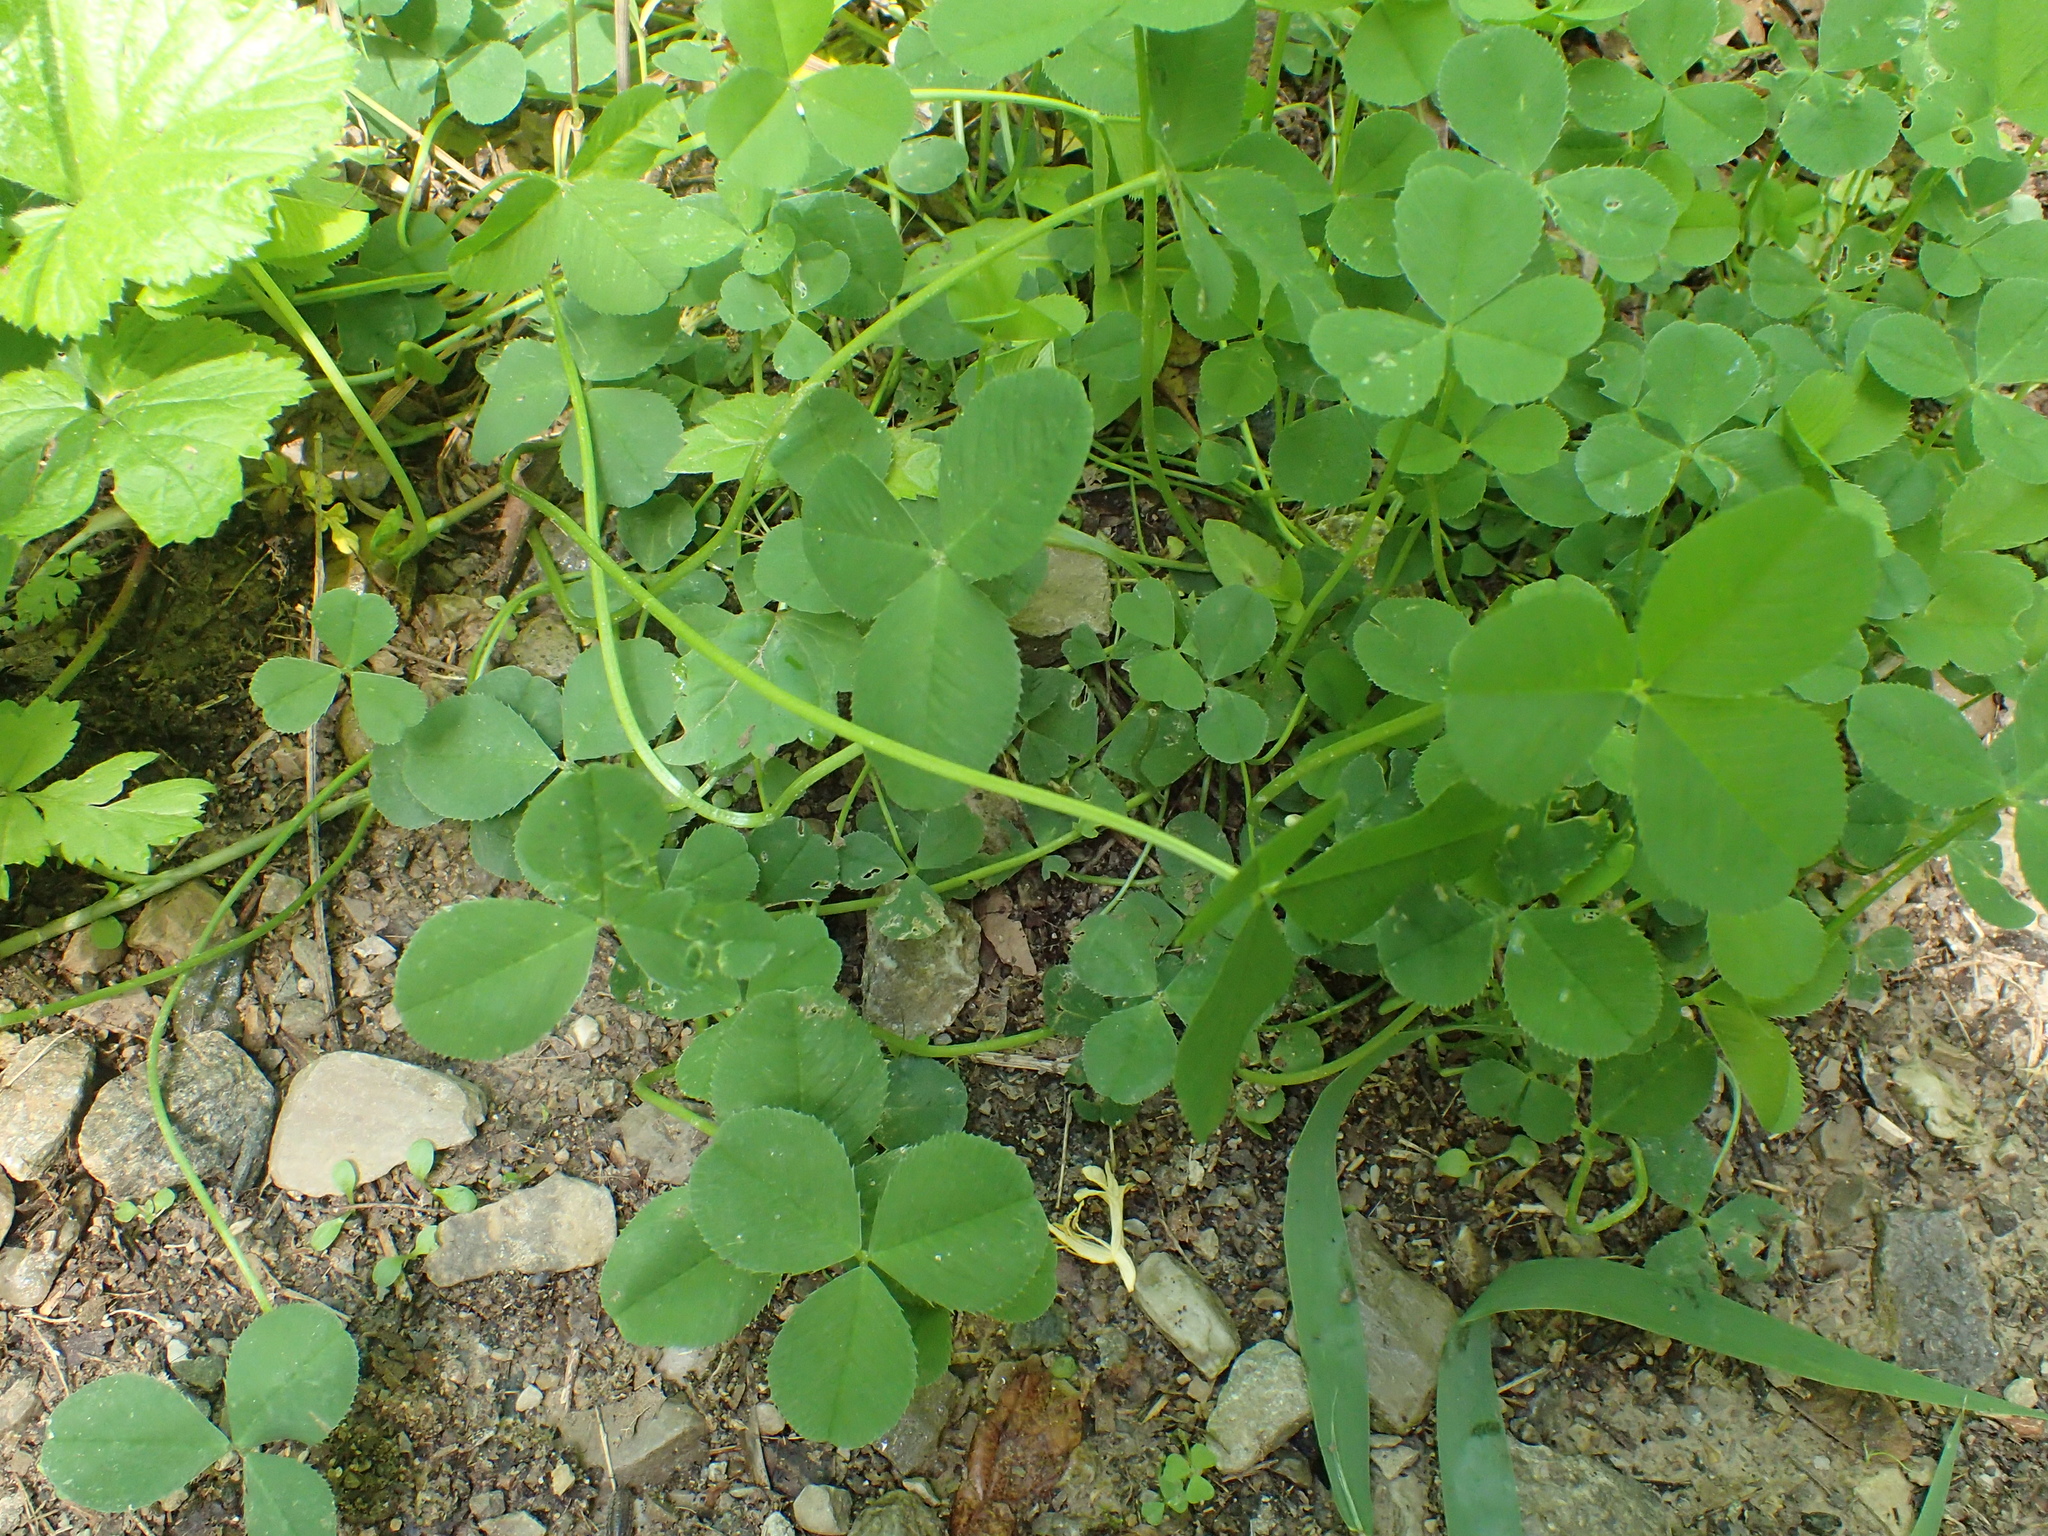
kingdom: Plantae
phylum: Tracheophyta
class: Magnoliopsida
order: Fabales
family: Fabaceae
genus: Trifolium
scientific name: Trifolium stoloniferum
